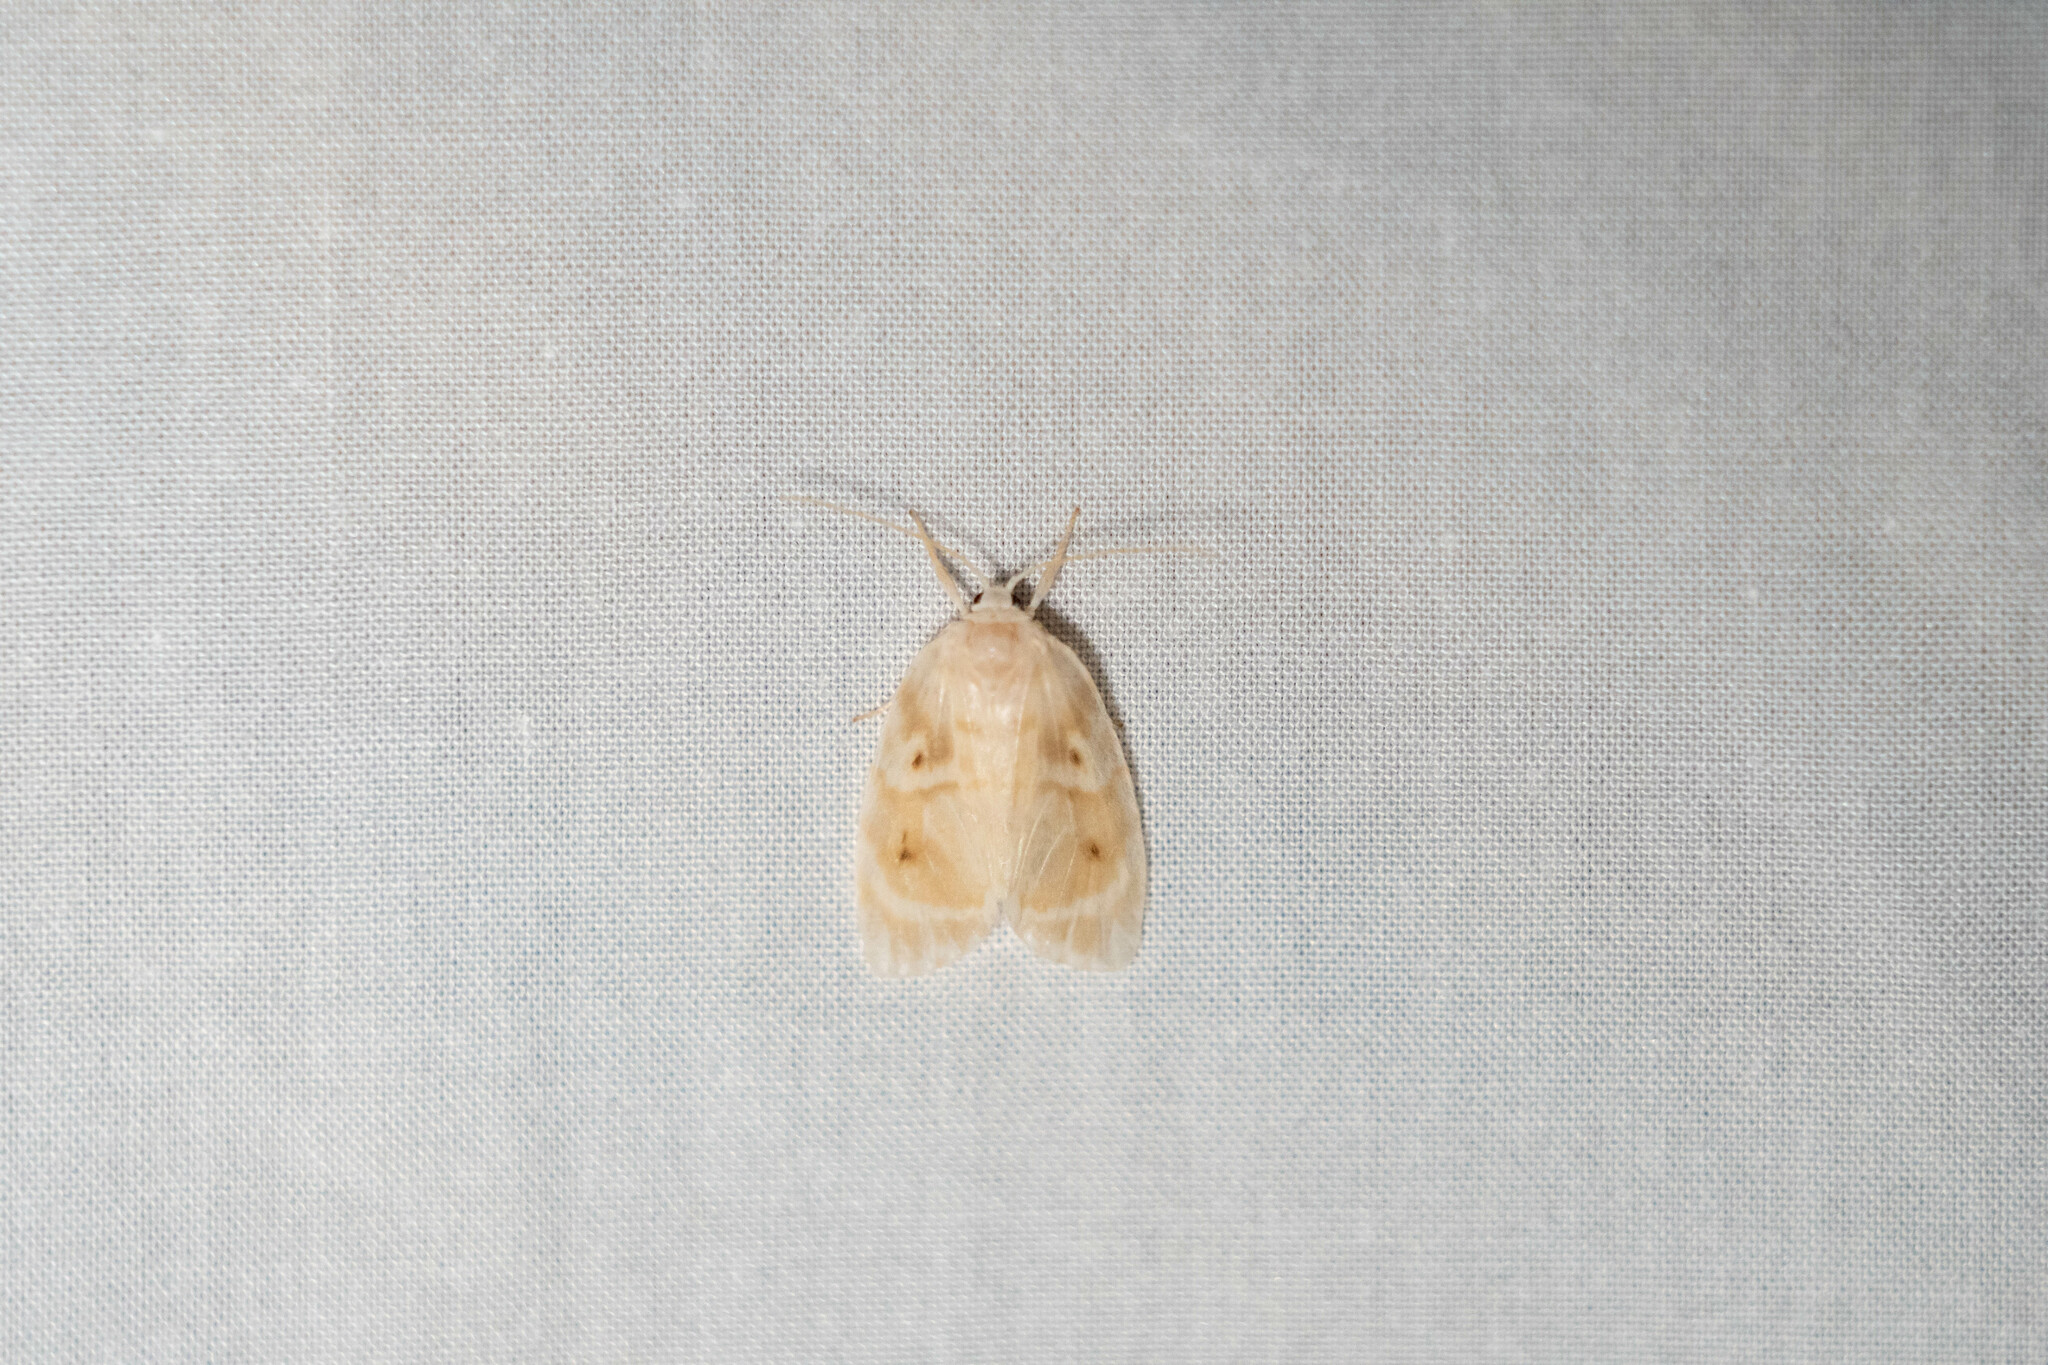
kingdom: Animalia
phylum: Arthropoda
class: Insecta
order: Lepidoptera
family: Erebidae
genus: Schistophleps
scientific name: Schistophleps bipuncta
